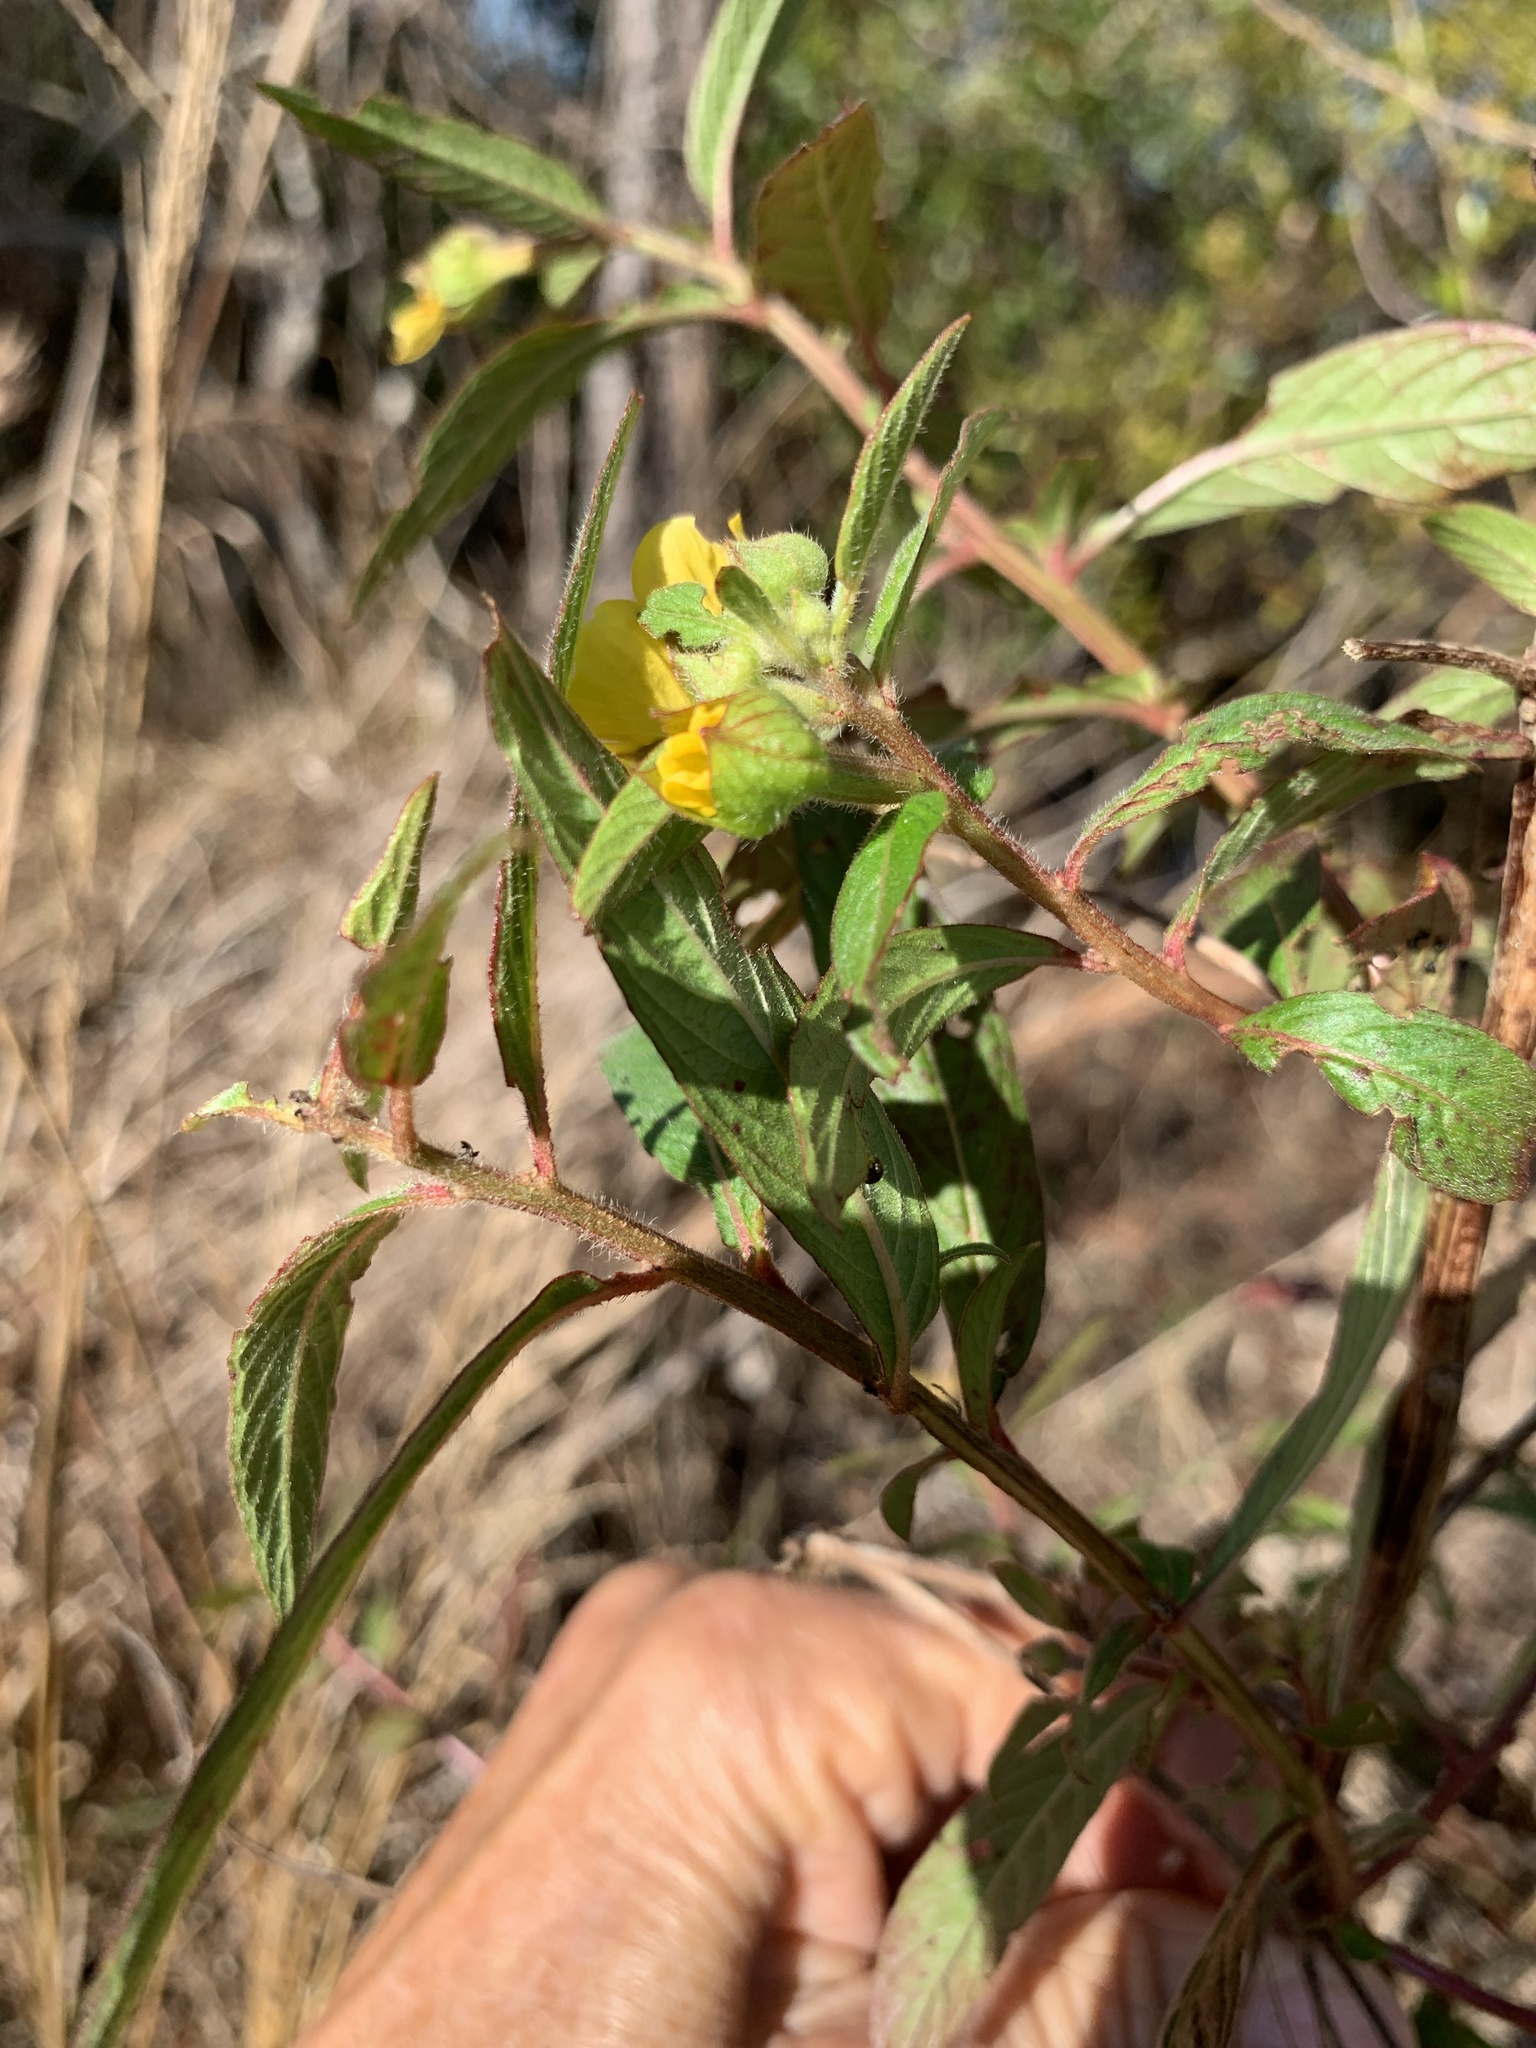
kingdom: Plantae
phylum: Tracheophyta
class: Magnoliopsida
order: Myrtales
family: Onagraceae
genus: Ludwigia
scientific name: Ludwigia peruviana
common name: Peruvian primrose-willow
